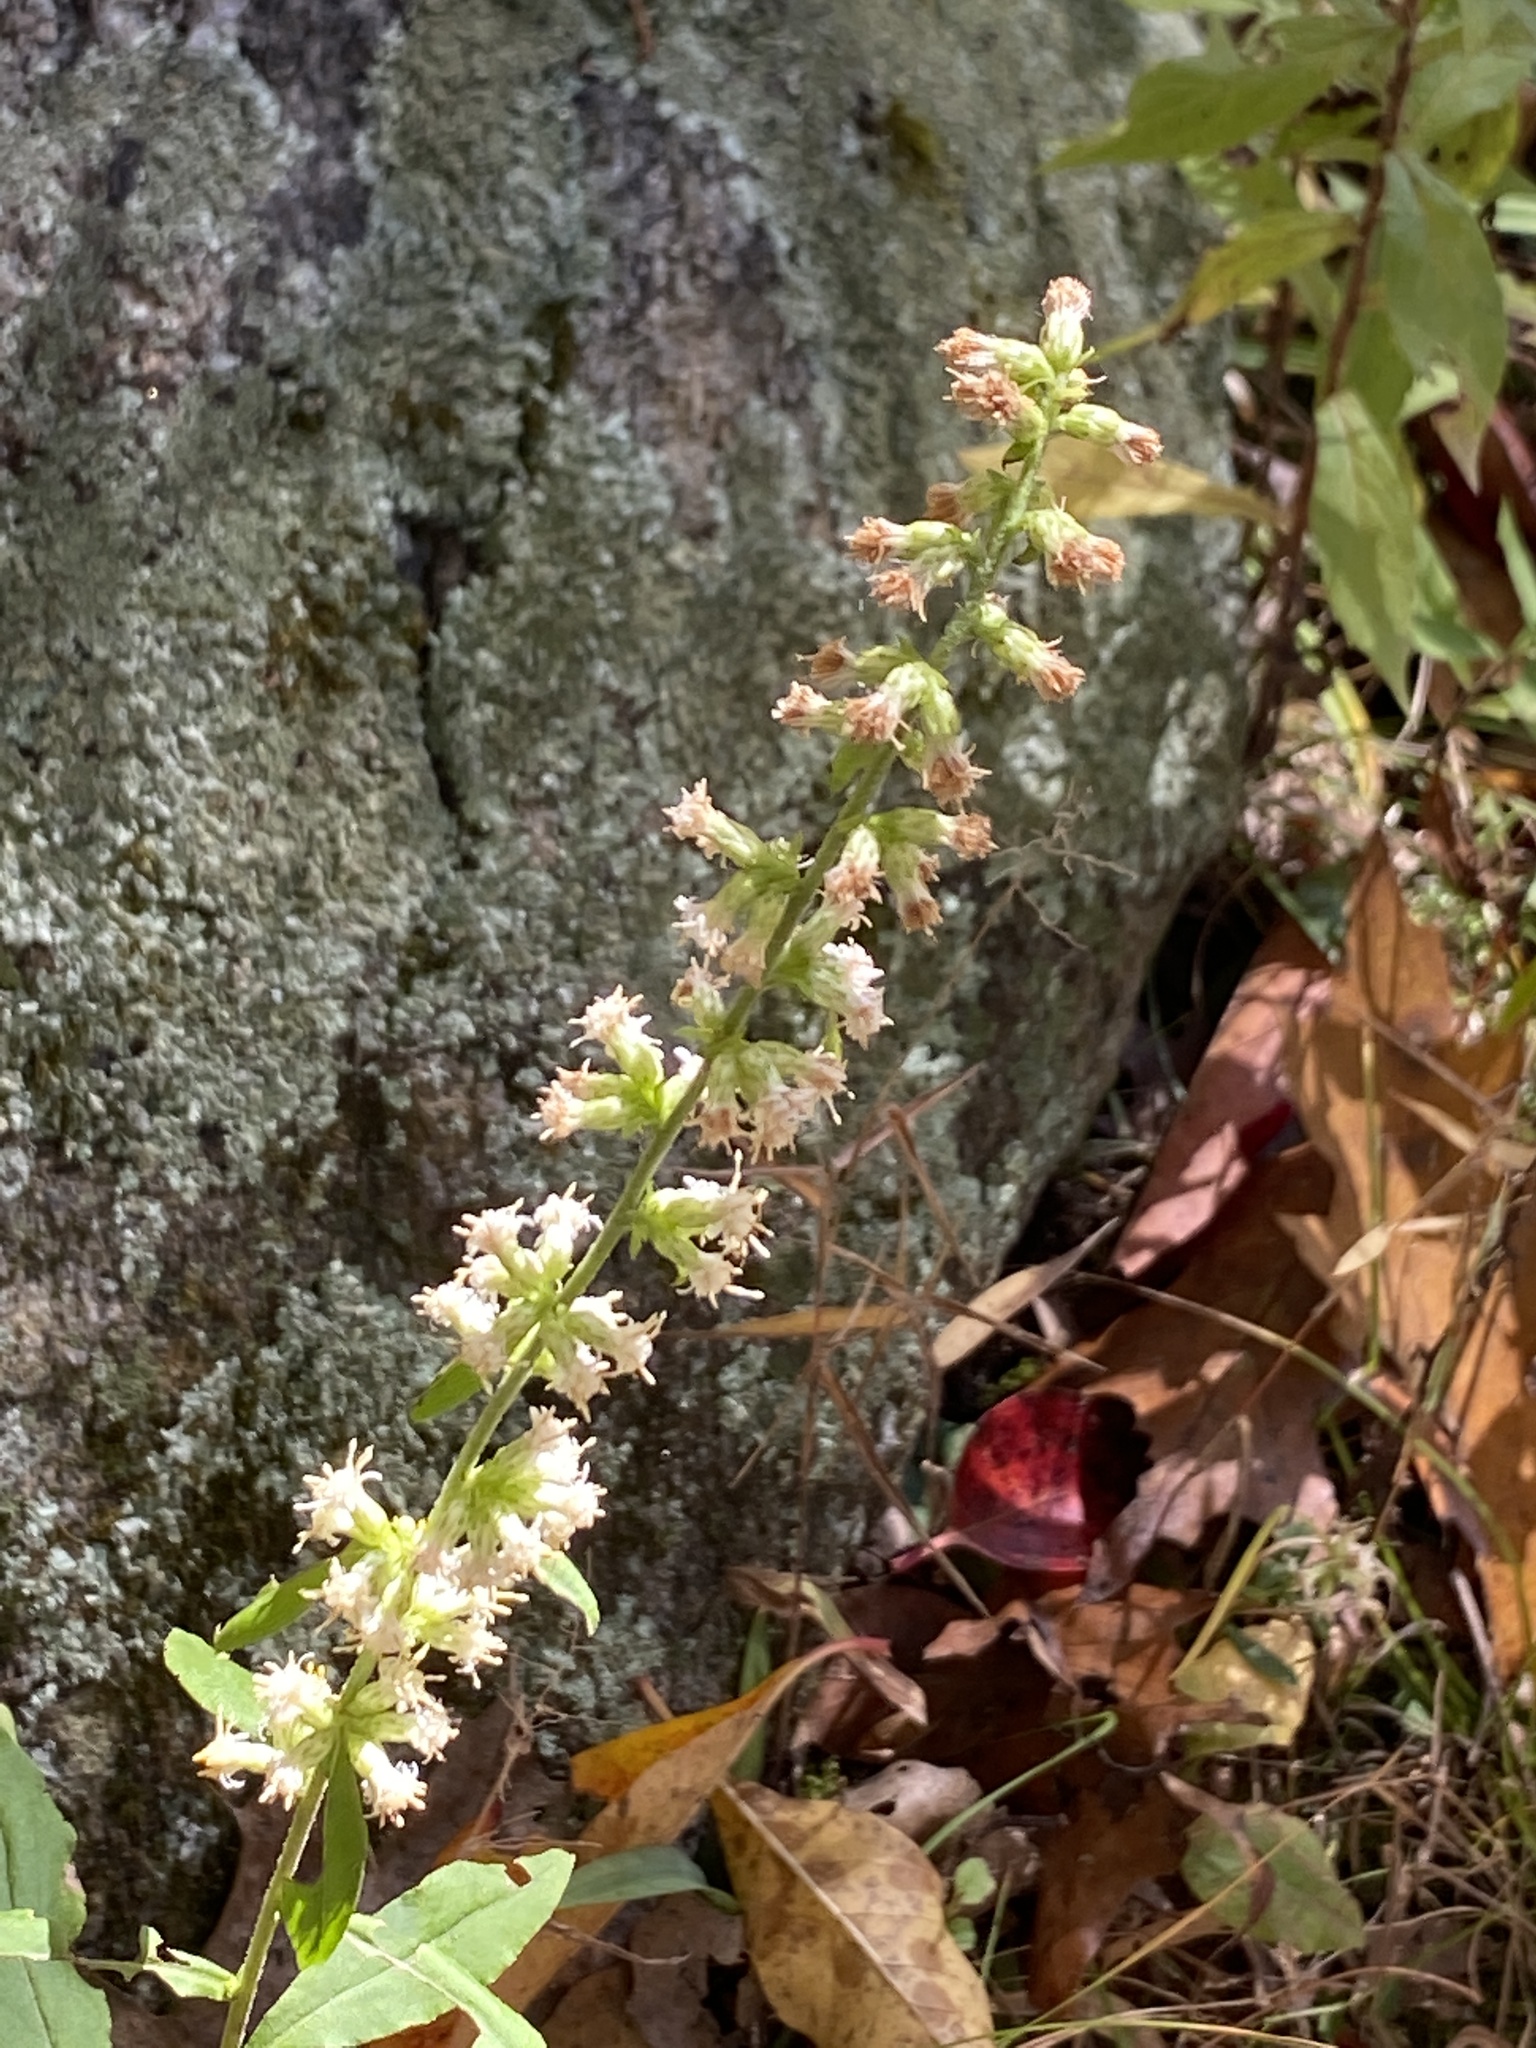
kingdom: Plantae
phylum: Tracheophyta
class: Magnoliopsida
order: Asterales
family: Asteraceae
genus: Solidago
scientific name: Solidago bicolor
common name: Silverrod
